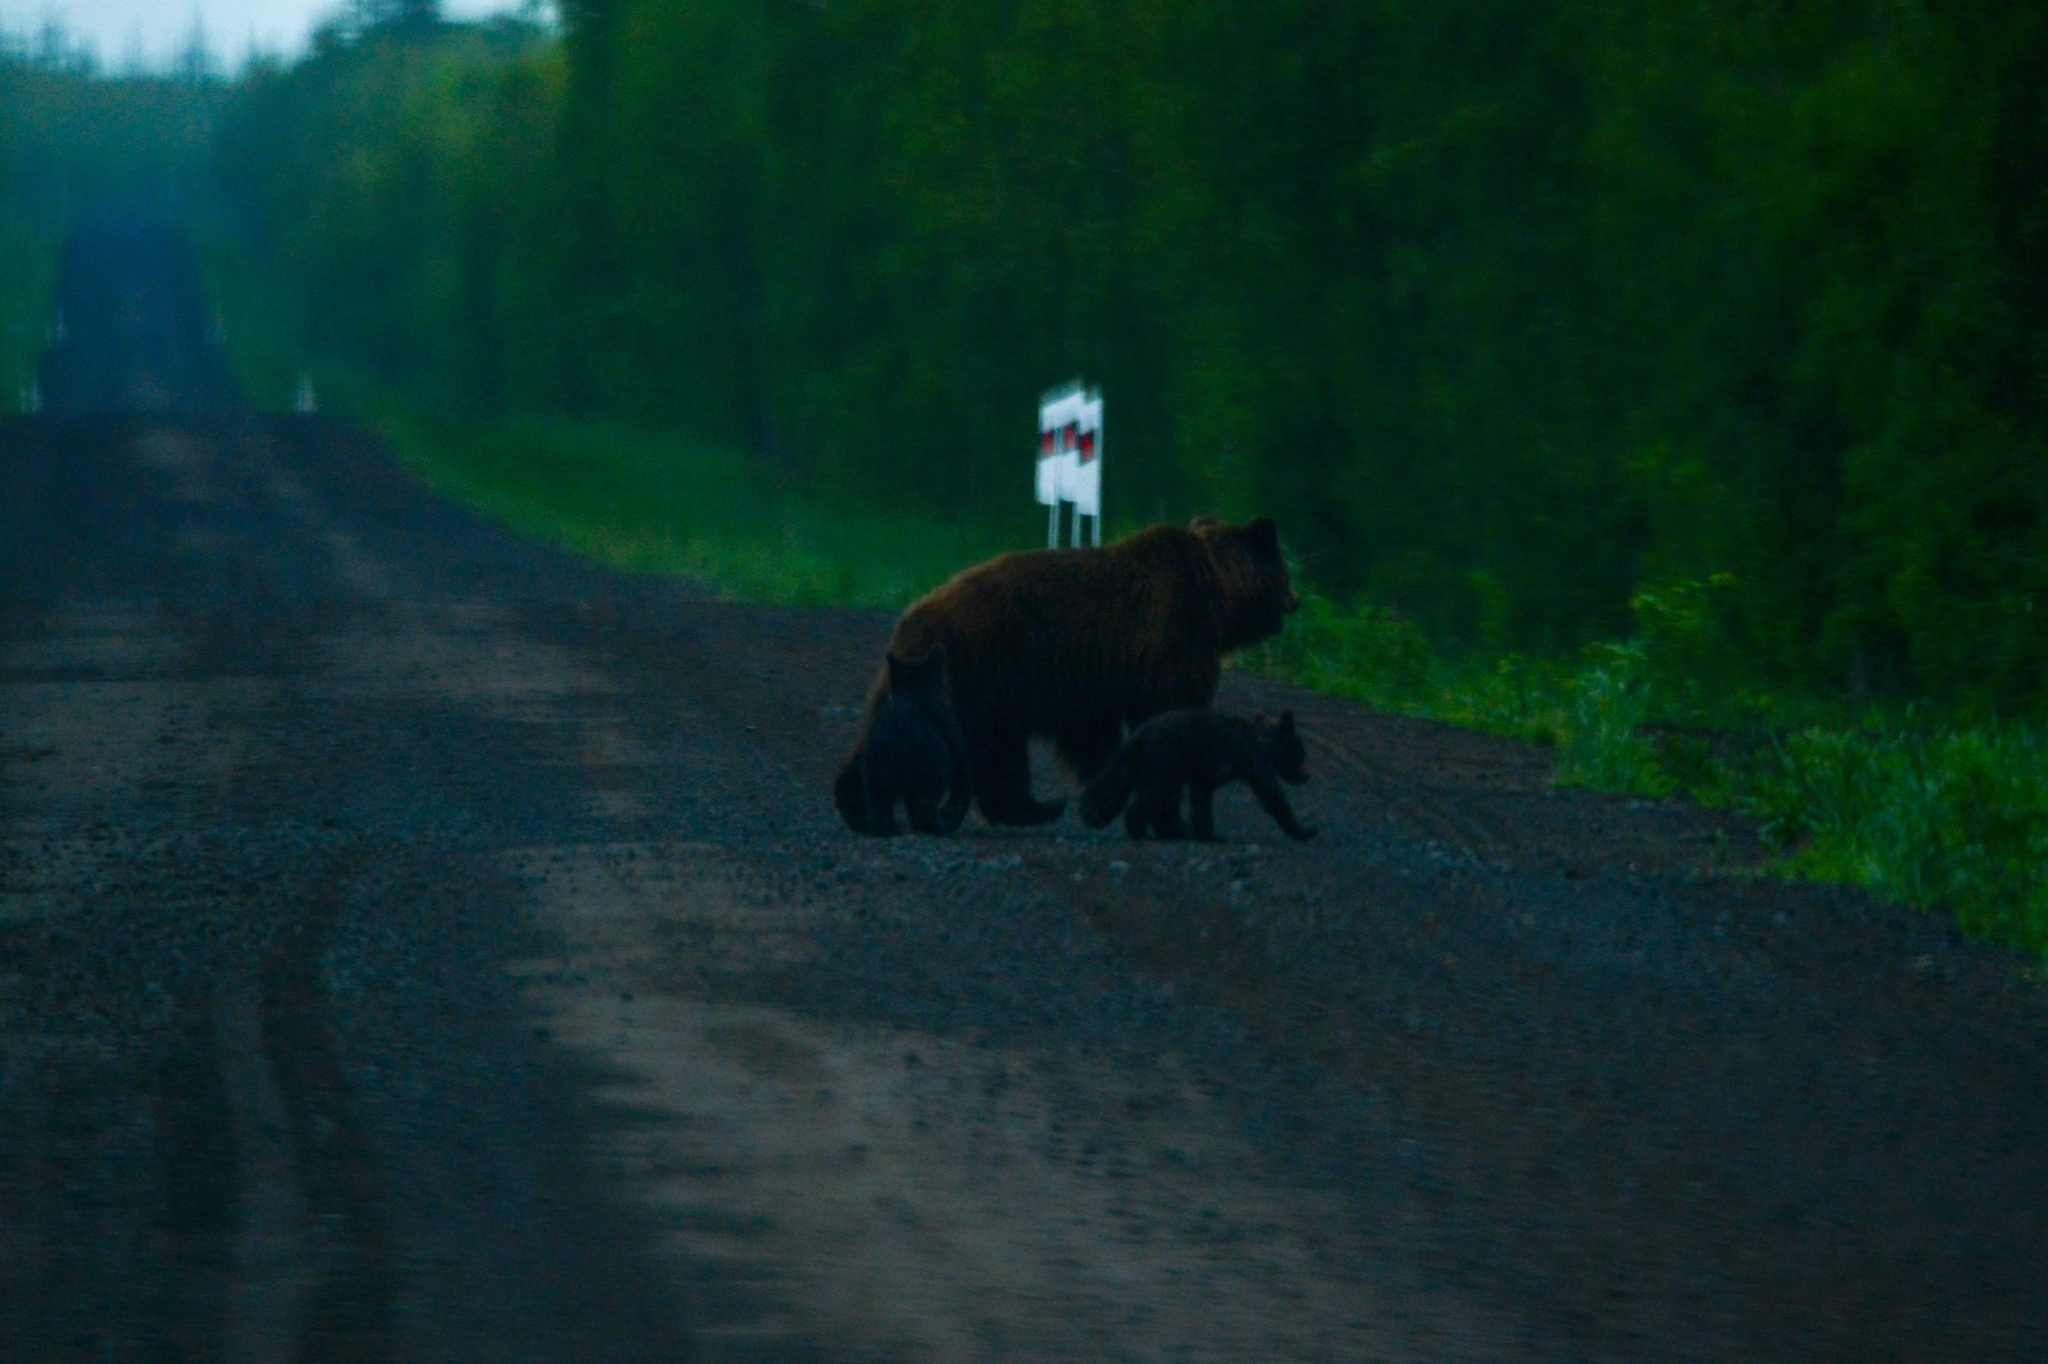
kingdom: Animalia
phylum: Chordata
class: Mammalia
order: Carnivora
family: Ursidae
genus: Ursus
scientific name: Ursus arctos
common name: Brown bear
